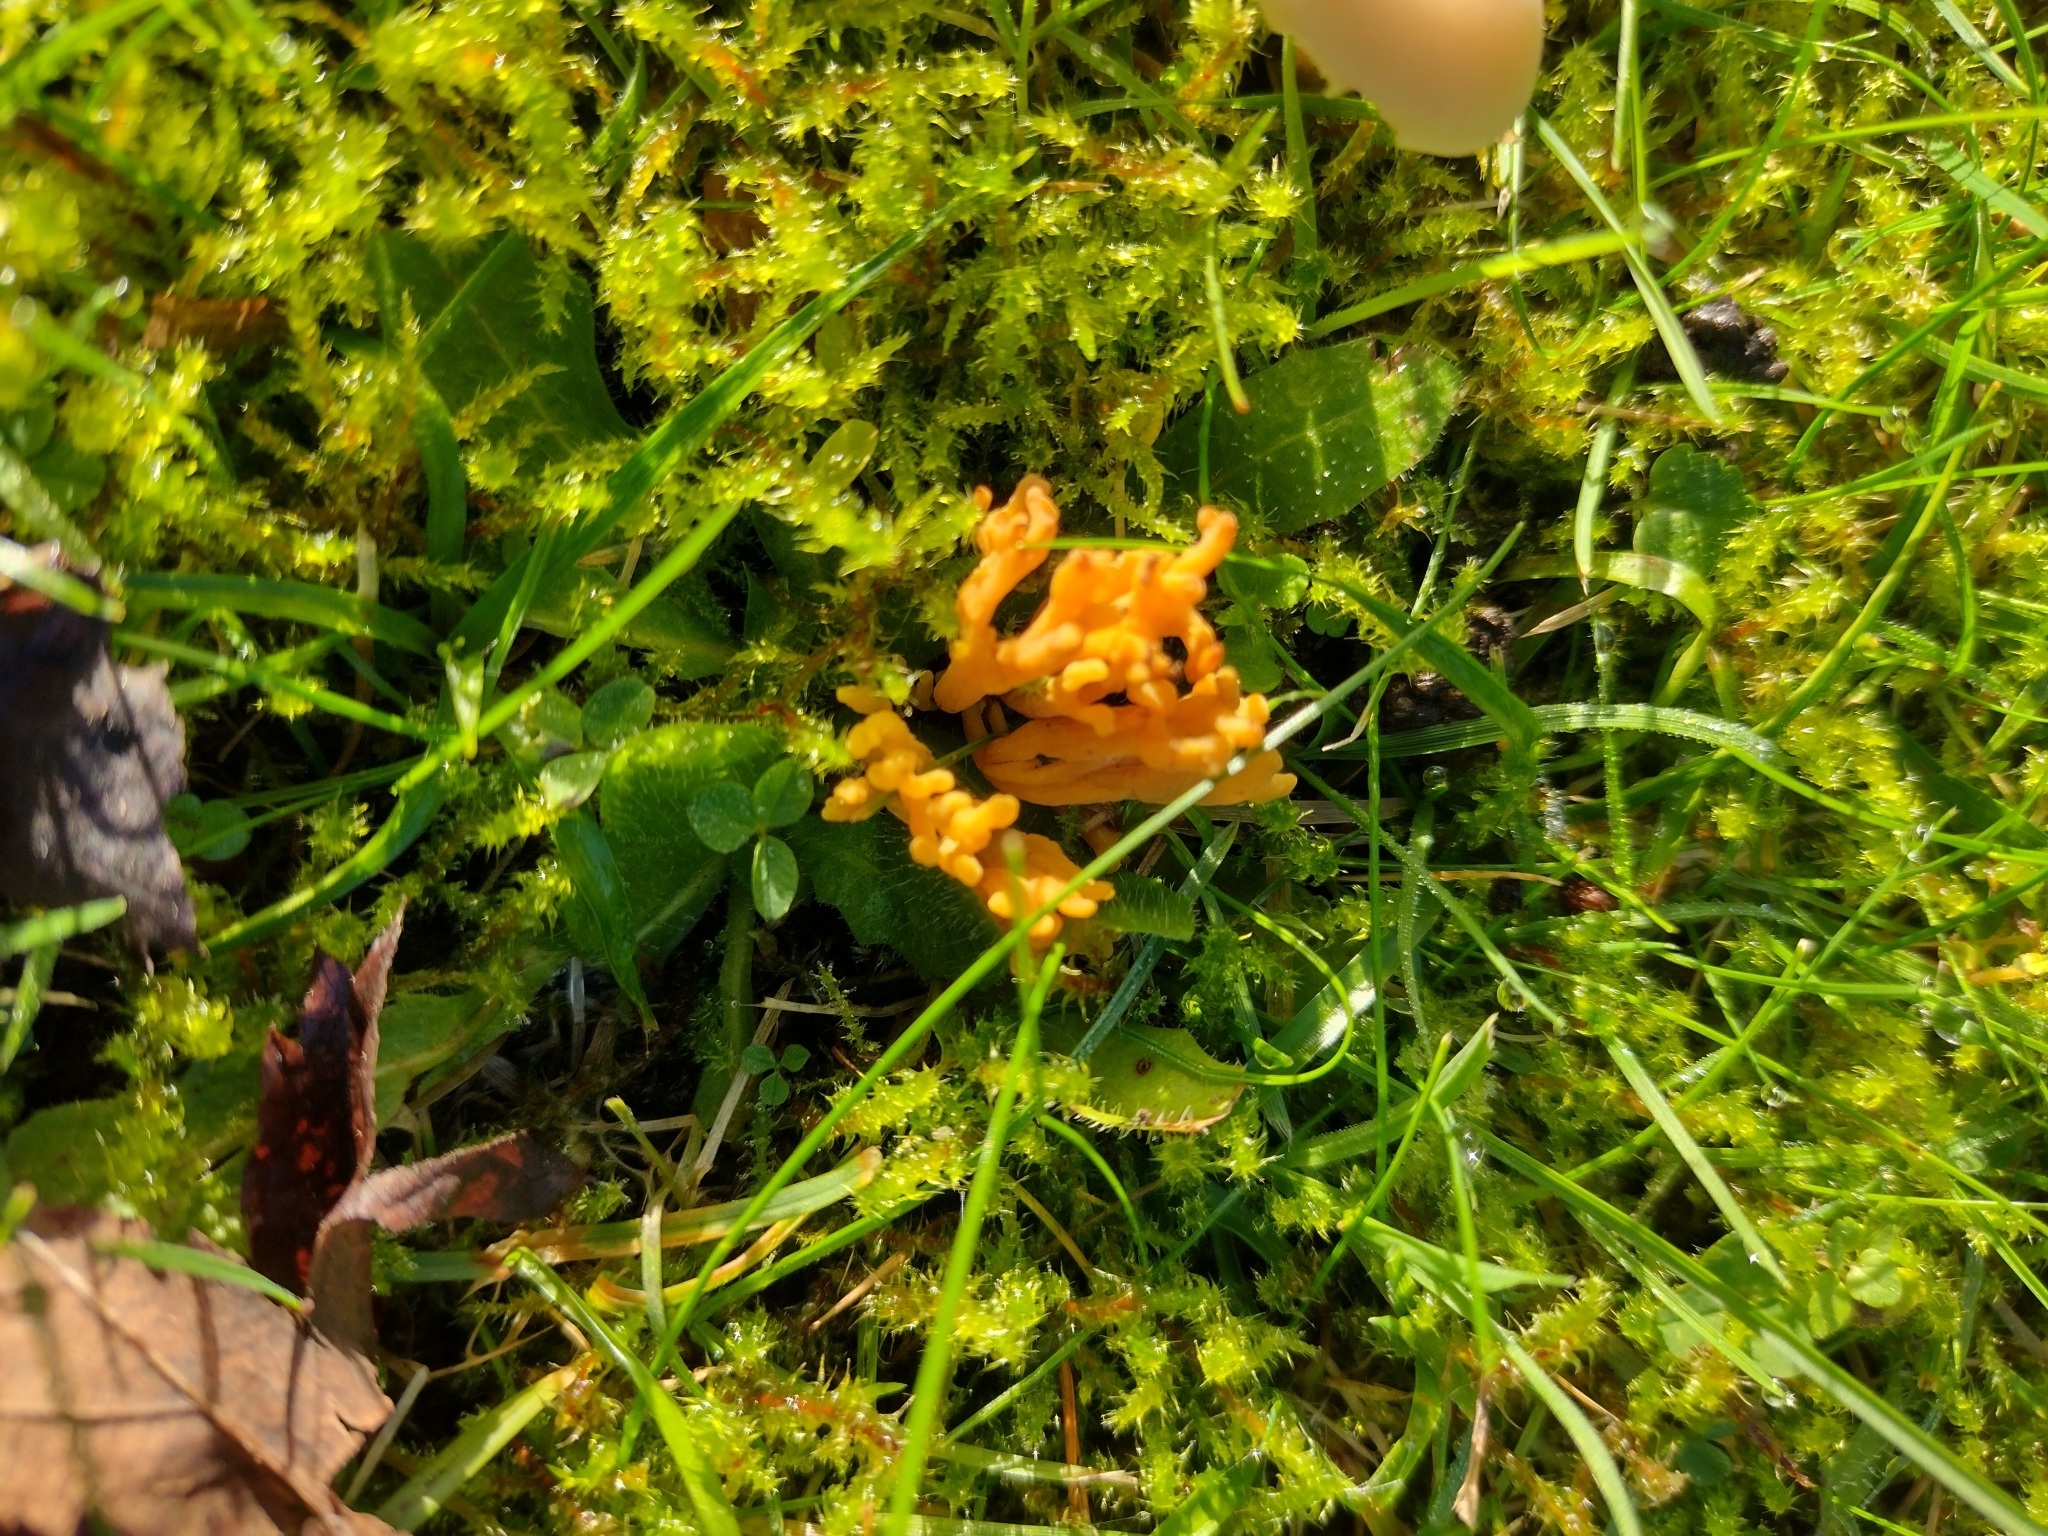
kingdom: Fungi
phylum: Basidiomycota
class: Agaricomycetes
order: Agaricales
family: Clavariaceae
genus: Clavulinopsis
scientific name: Clavulinopsis corniculata
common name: Meadow coral
